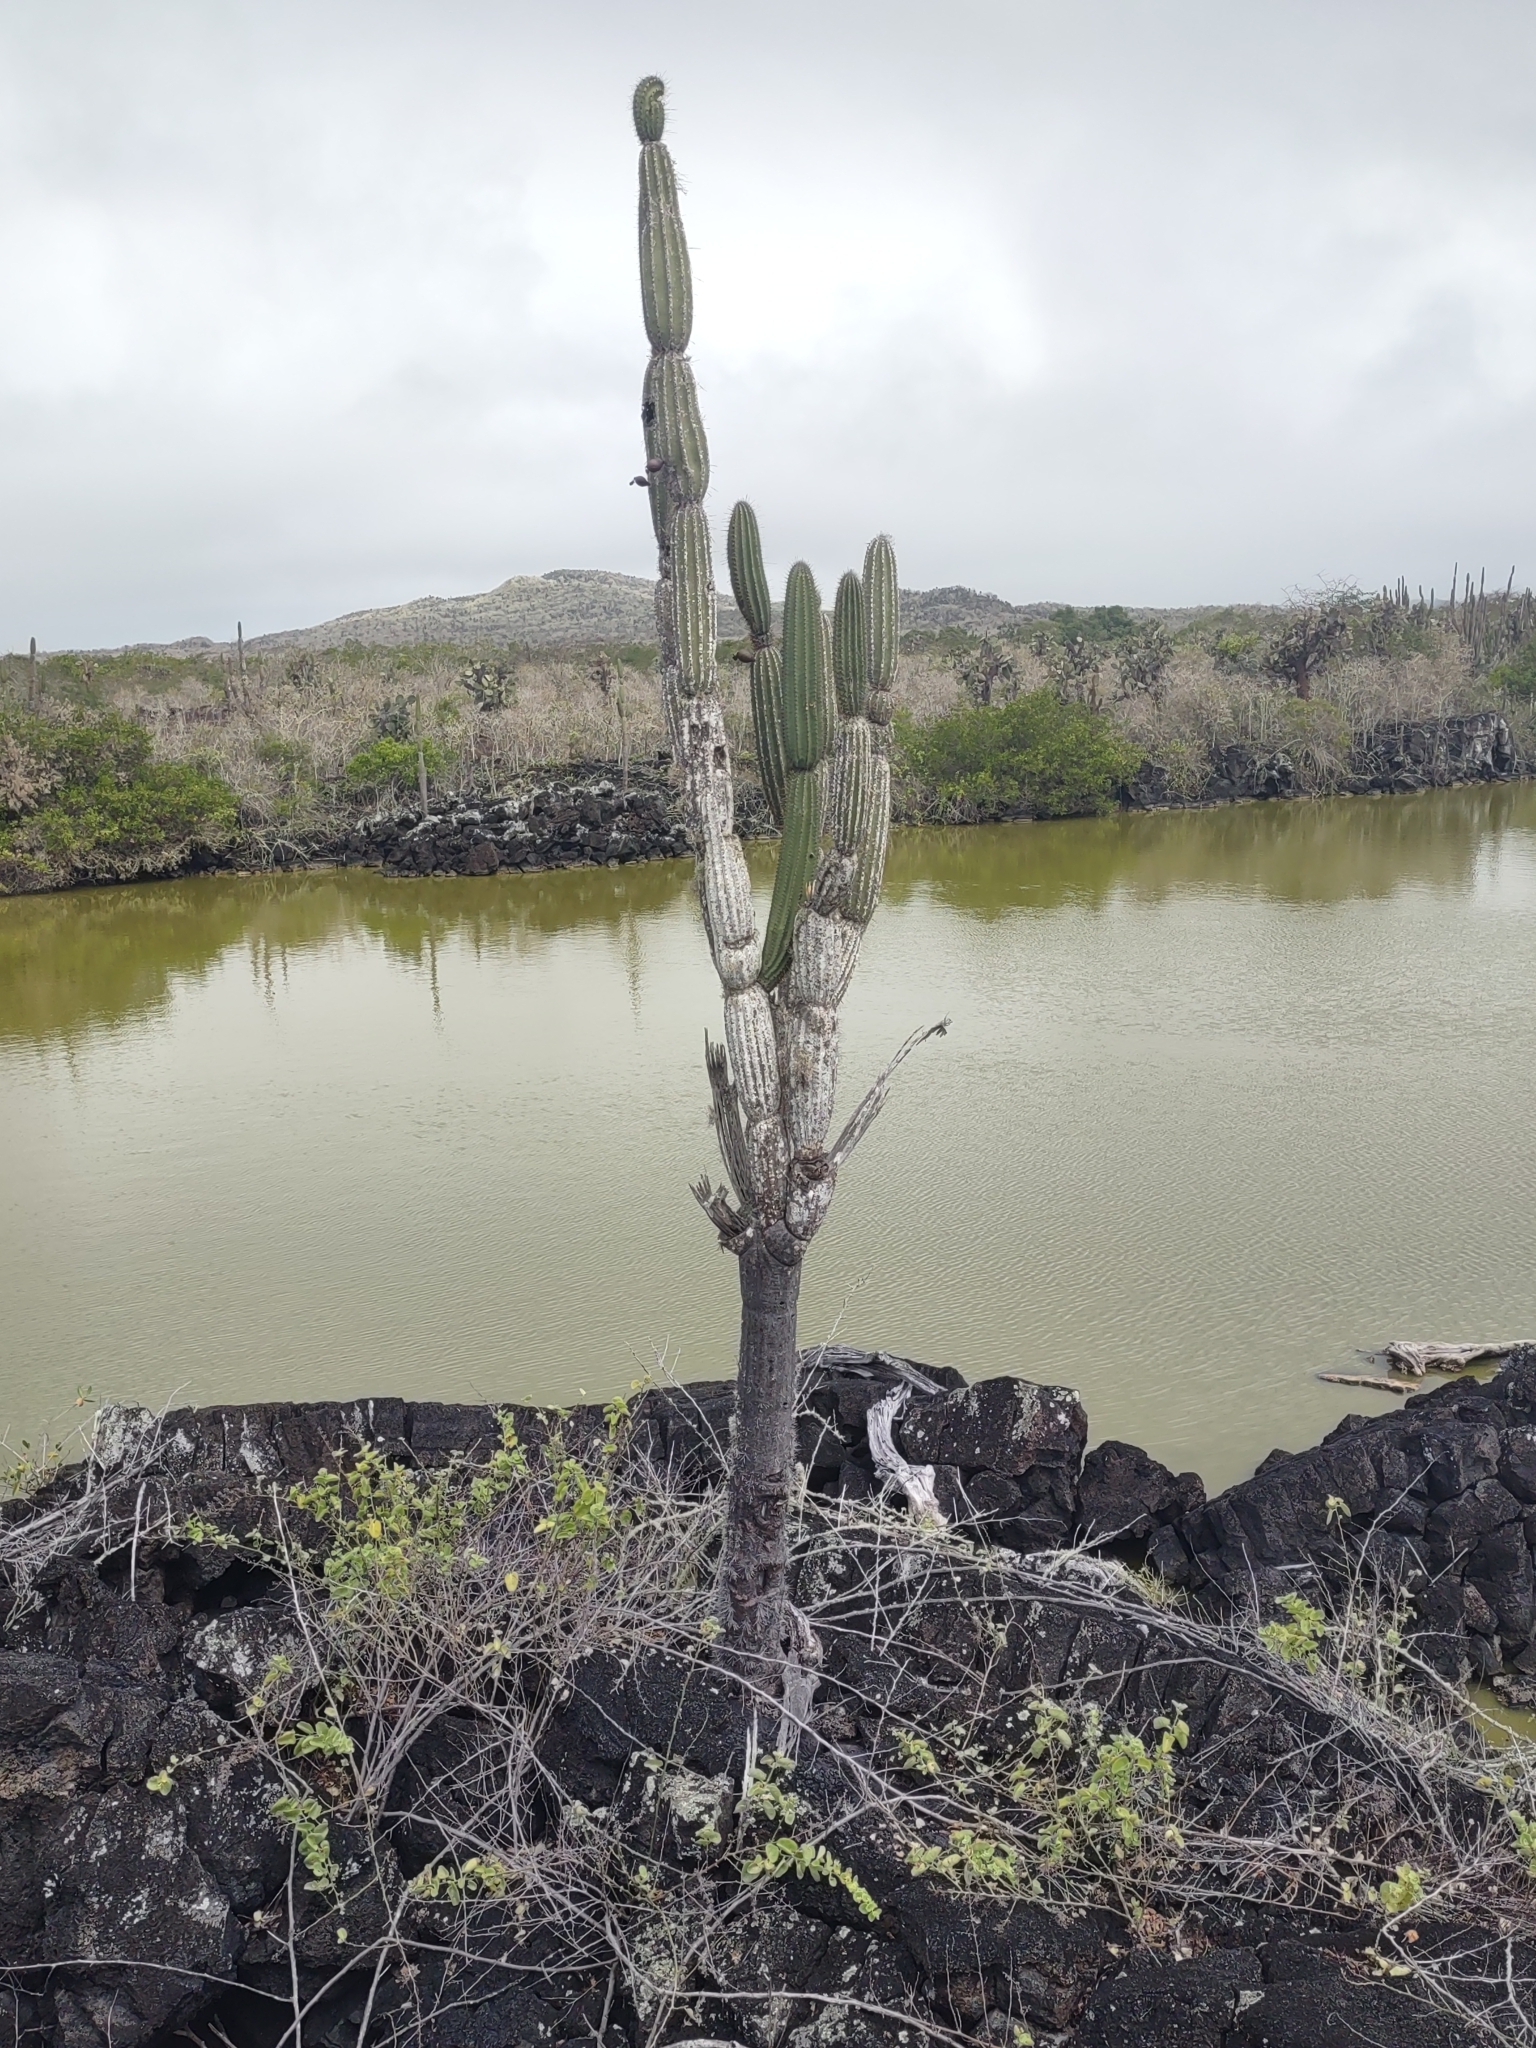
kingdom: Plantae
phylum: Tracheophyta
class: Magnoliopsida
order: Caryophyllales
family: Cactaceae
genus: Jasminocereus
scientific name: Jasminocereus thouarsii
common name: Candelabra cactus
